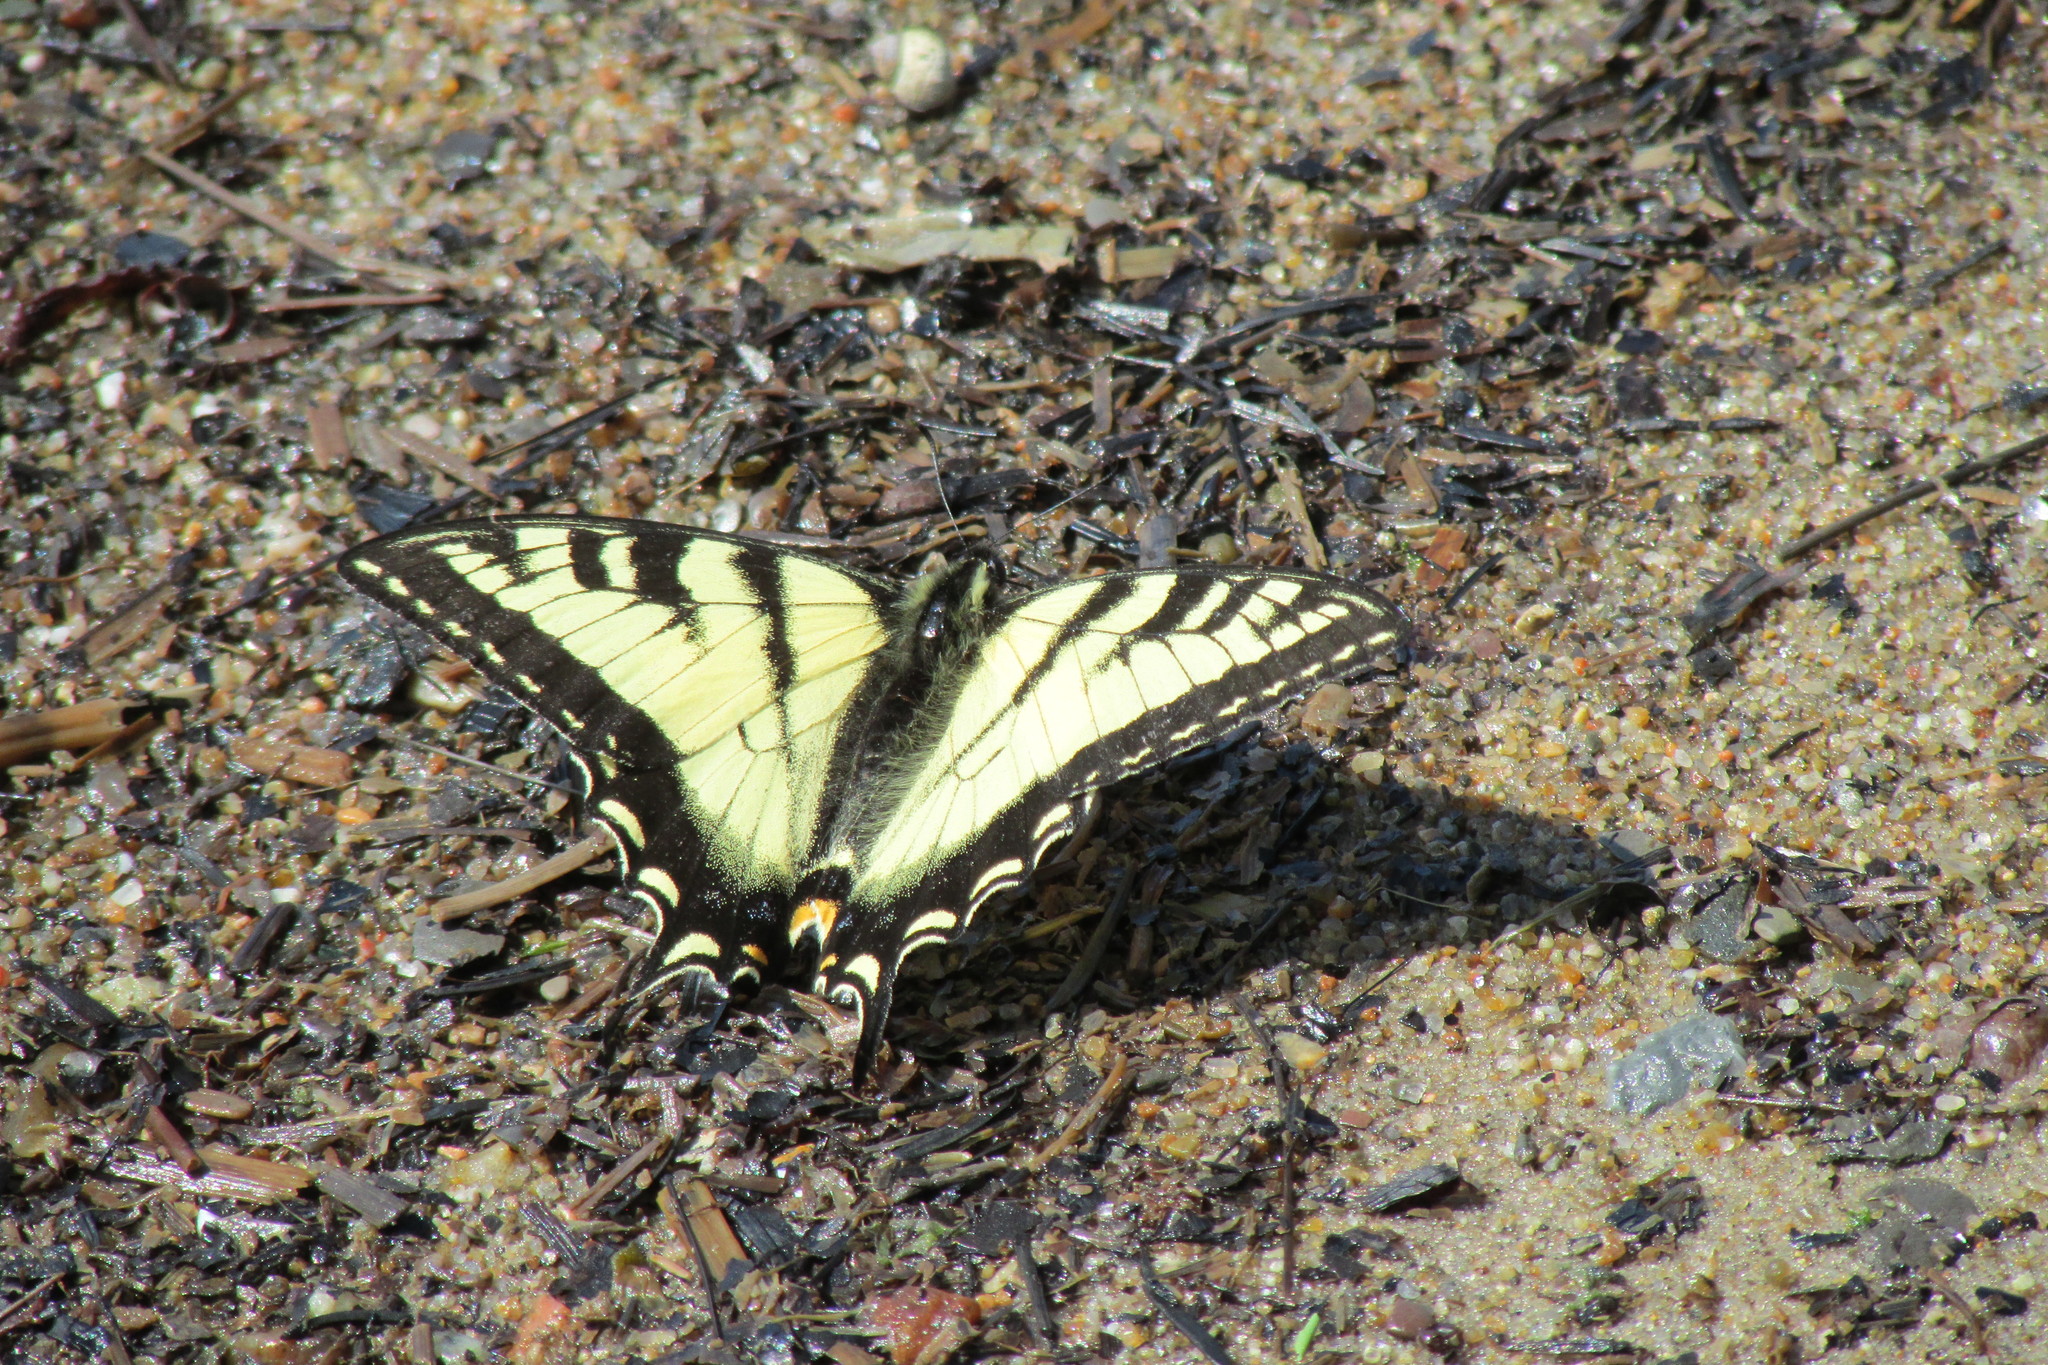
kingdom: Animalia
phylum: Arthropoda
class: Insecta
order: Lepidoptera
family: Papilionidae
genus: Papilio
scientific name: Papilio canadensis
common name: Canadian tiger swallowtail
